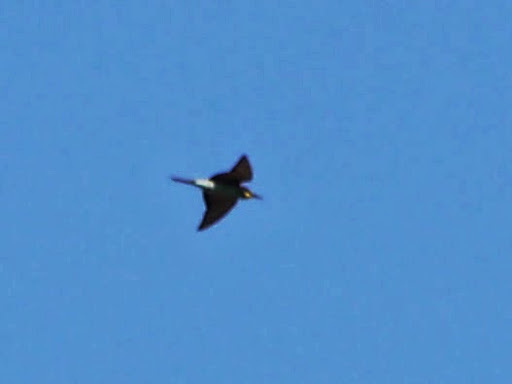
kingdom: Animalia
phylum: Chordata
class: Aves
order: Coraciiformes
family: Meropidae
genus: Merops
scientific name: Merops apiaster
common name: European bee-eater
